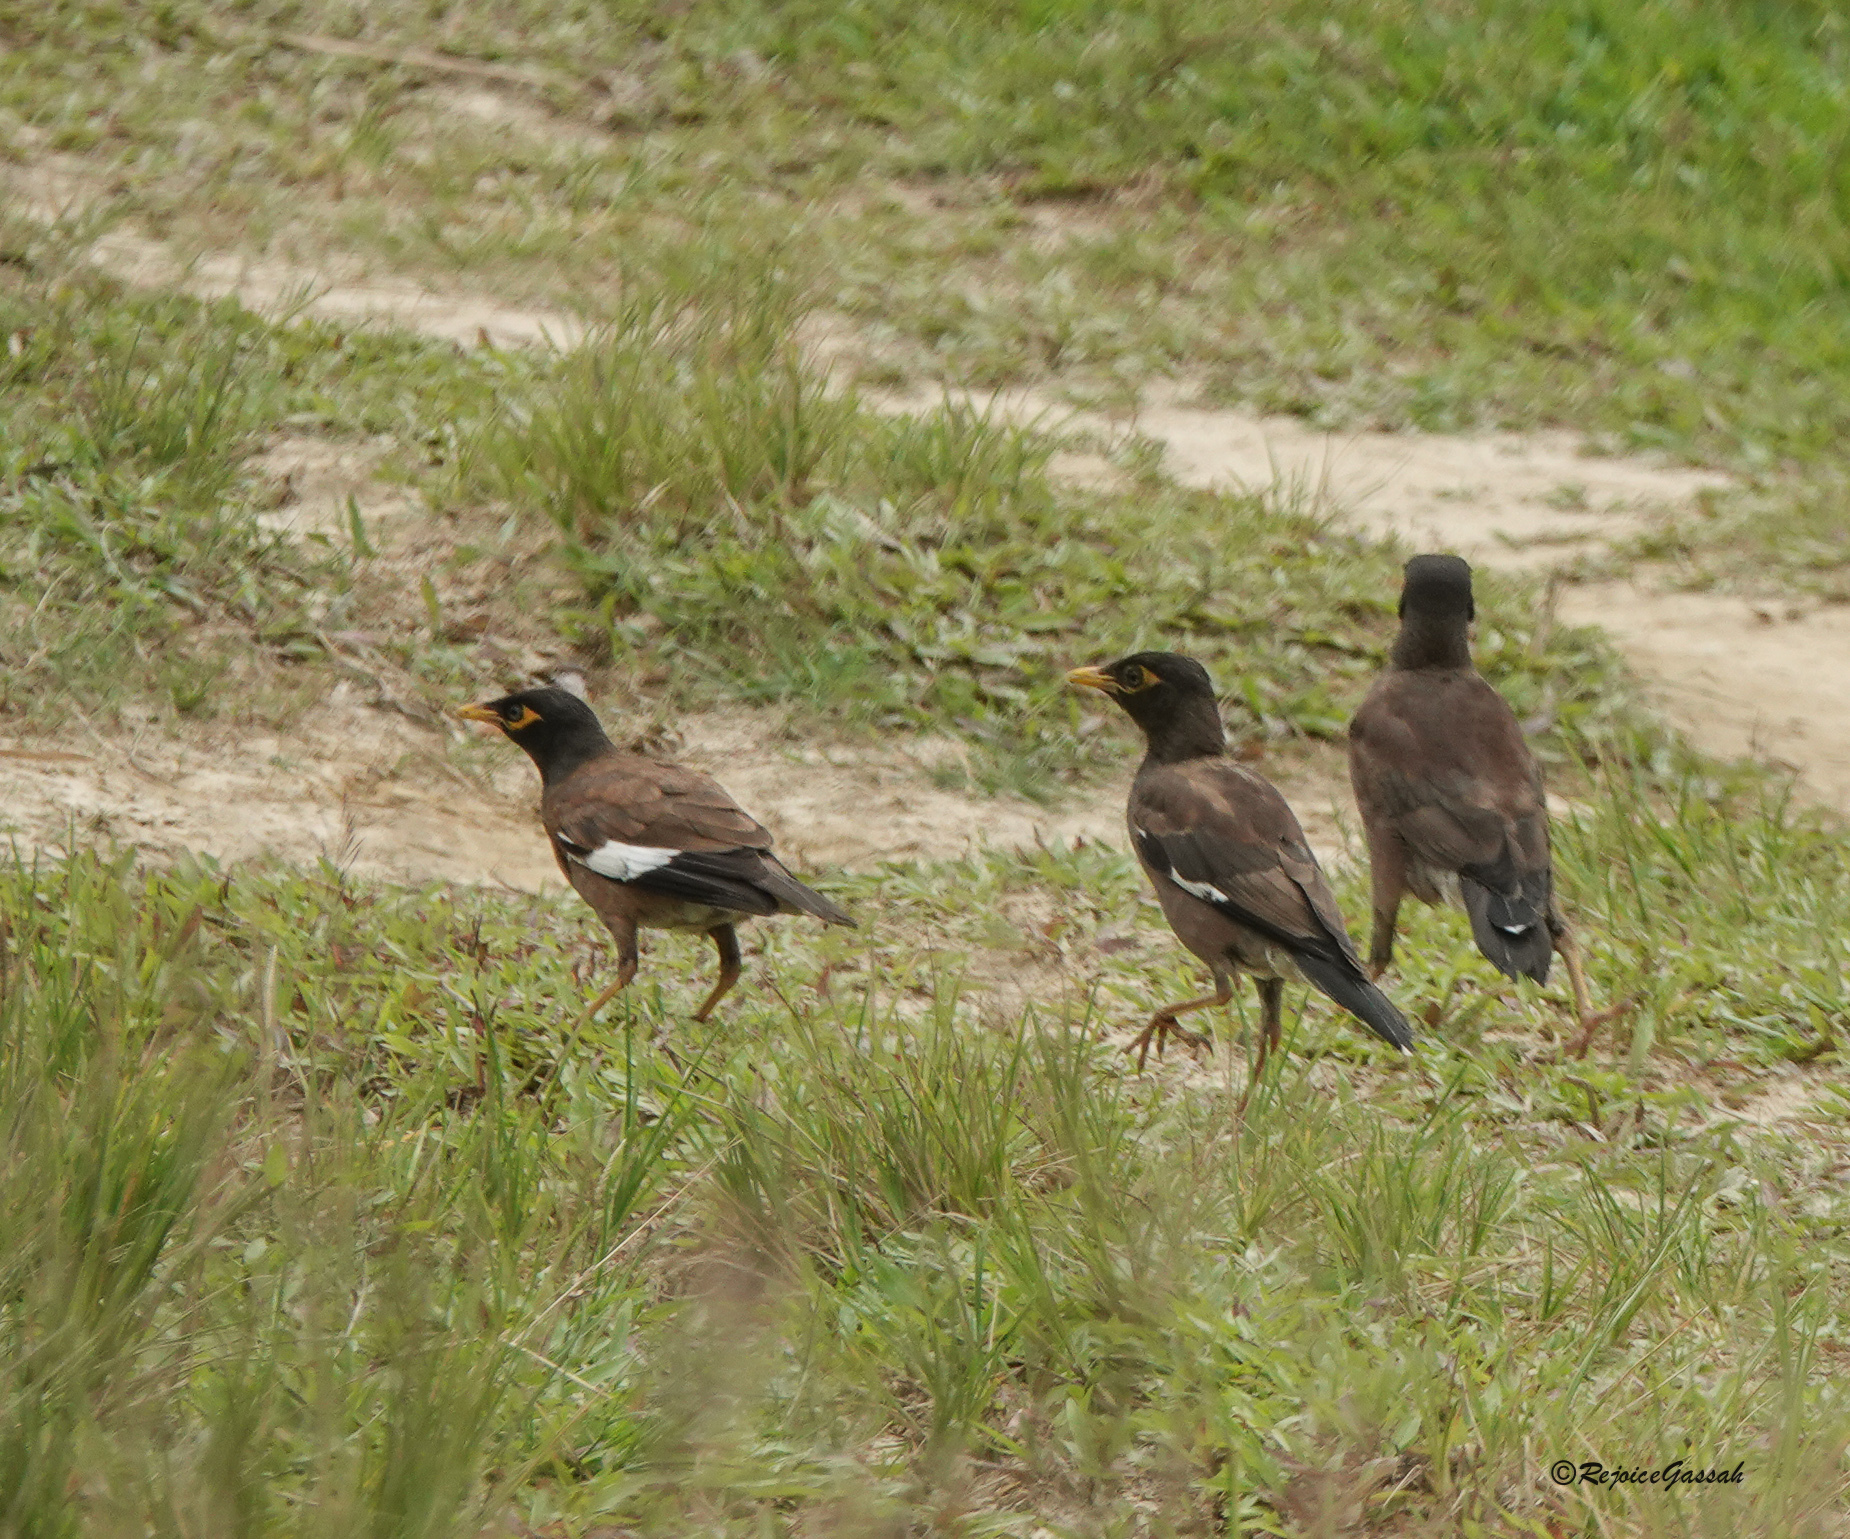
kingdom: Animalia
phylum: Chordata
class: Aves
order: Passeriformes
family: Sturnidae
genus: Acridotheres
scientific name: Acridotheres tristis
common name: Common myna
